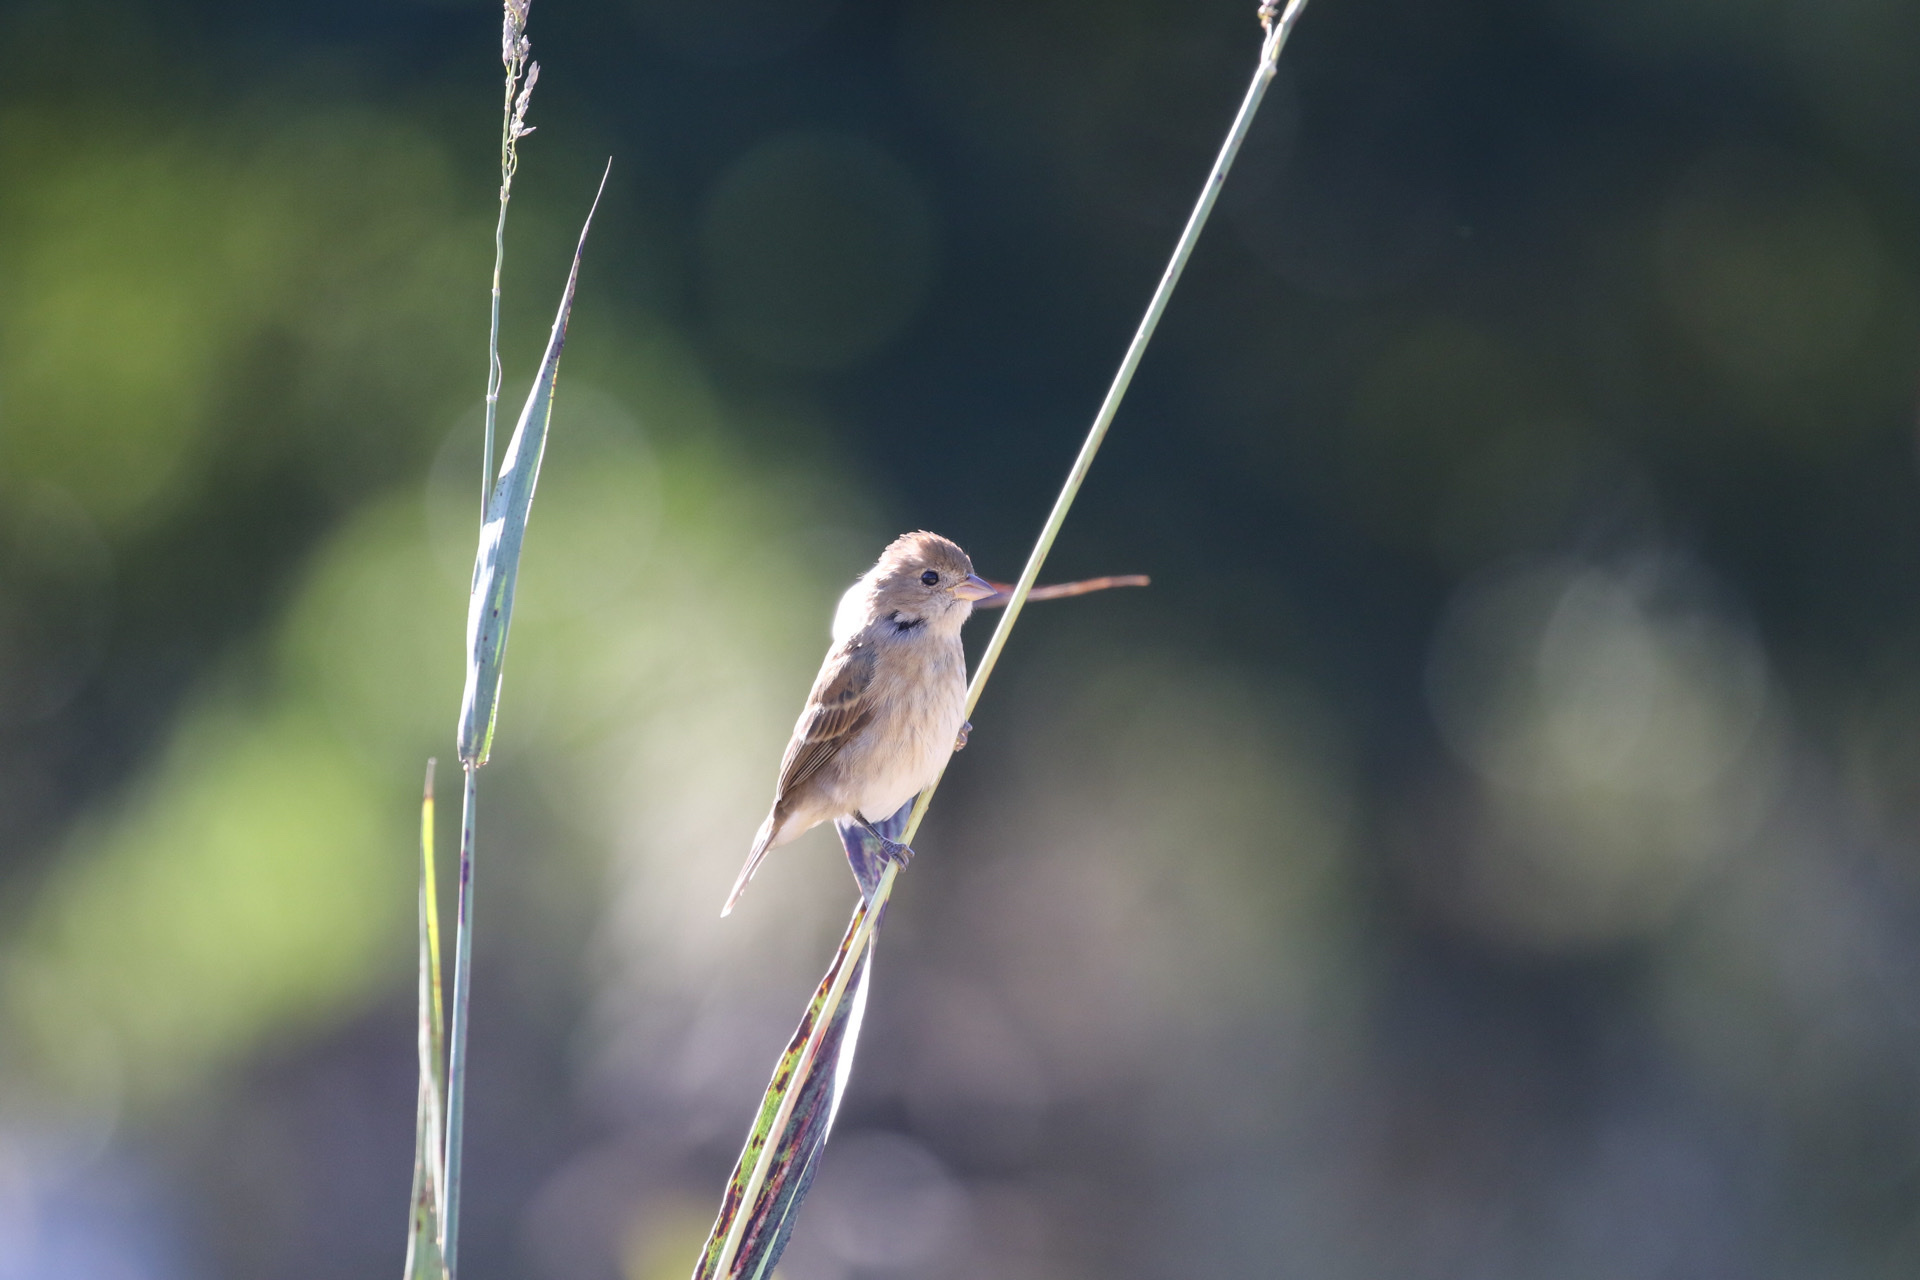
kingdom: Animalia
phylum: Chordata
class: Aves
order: Passeriformes
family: Cardinalidae
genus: Passerina
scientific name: Passerina cyanea
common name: Indigo bunting
